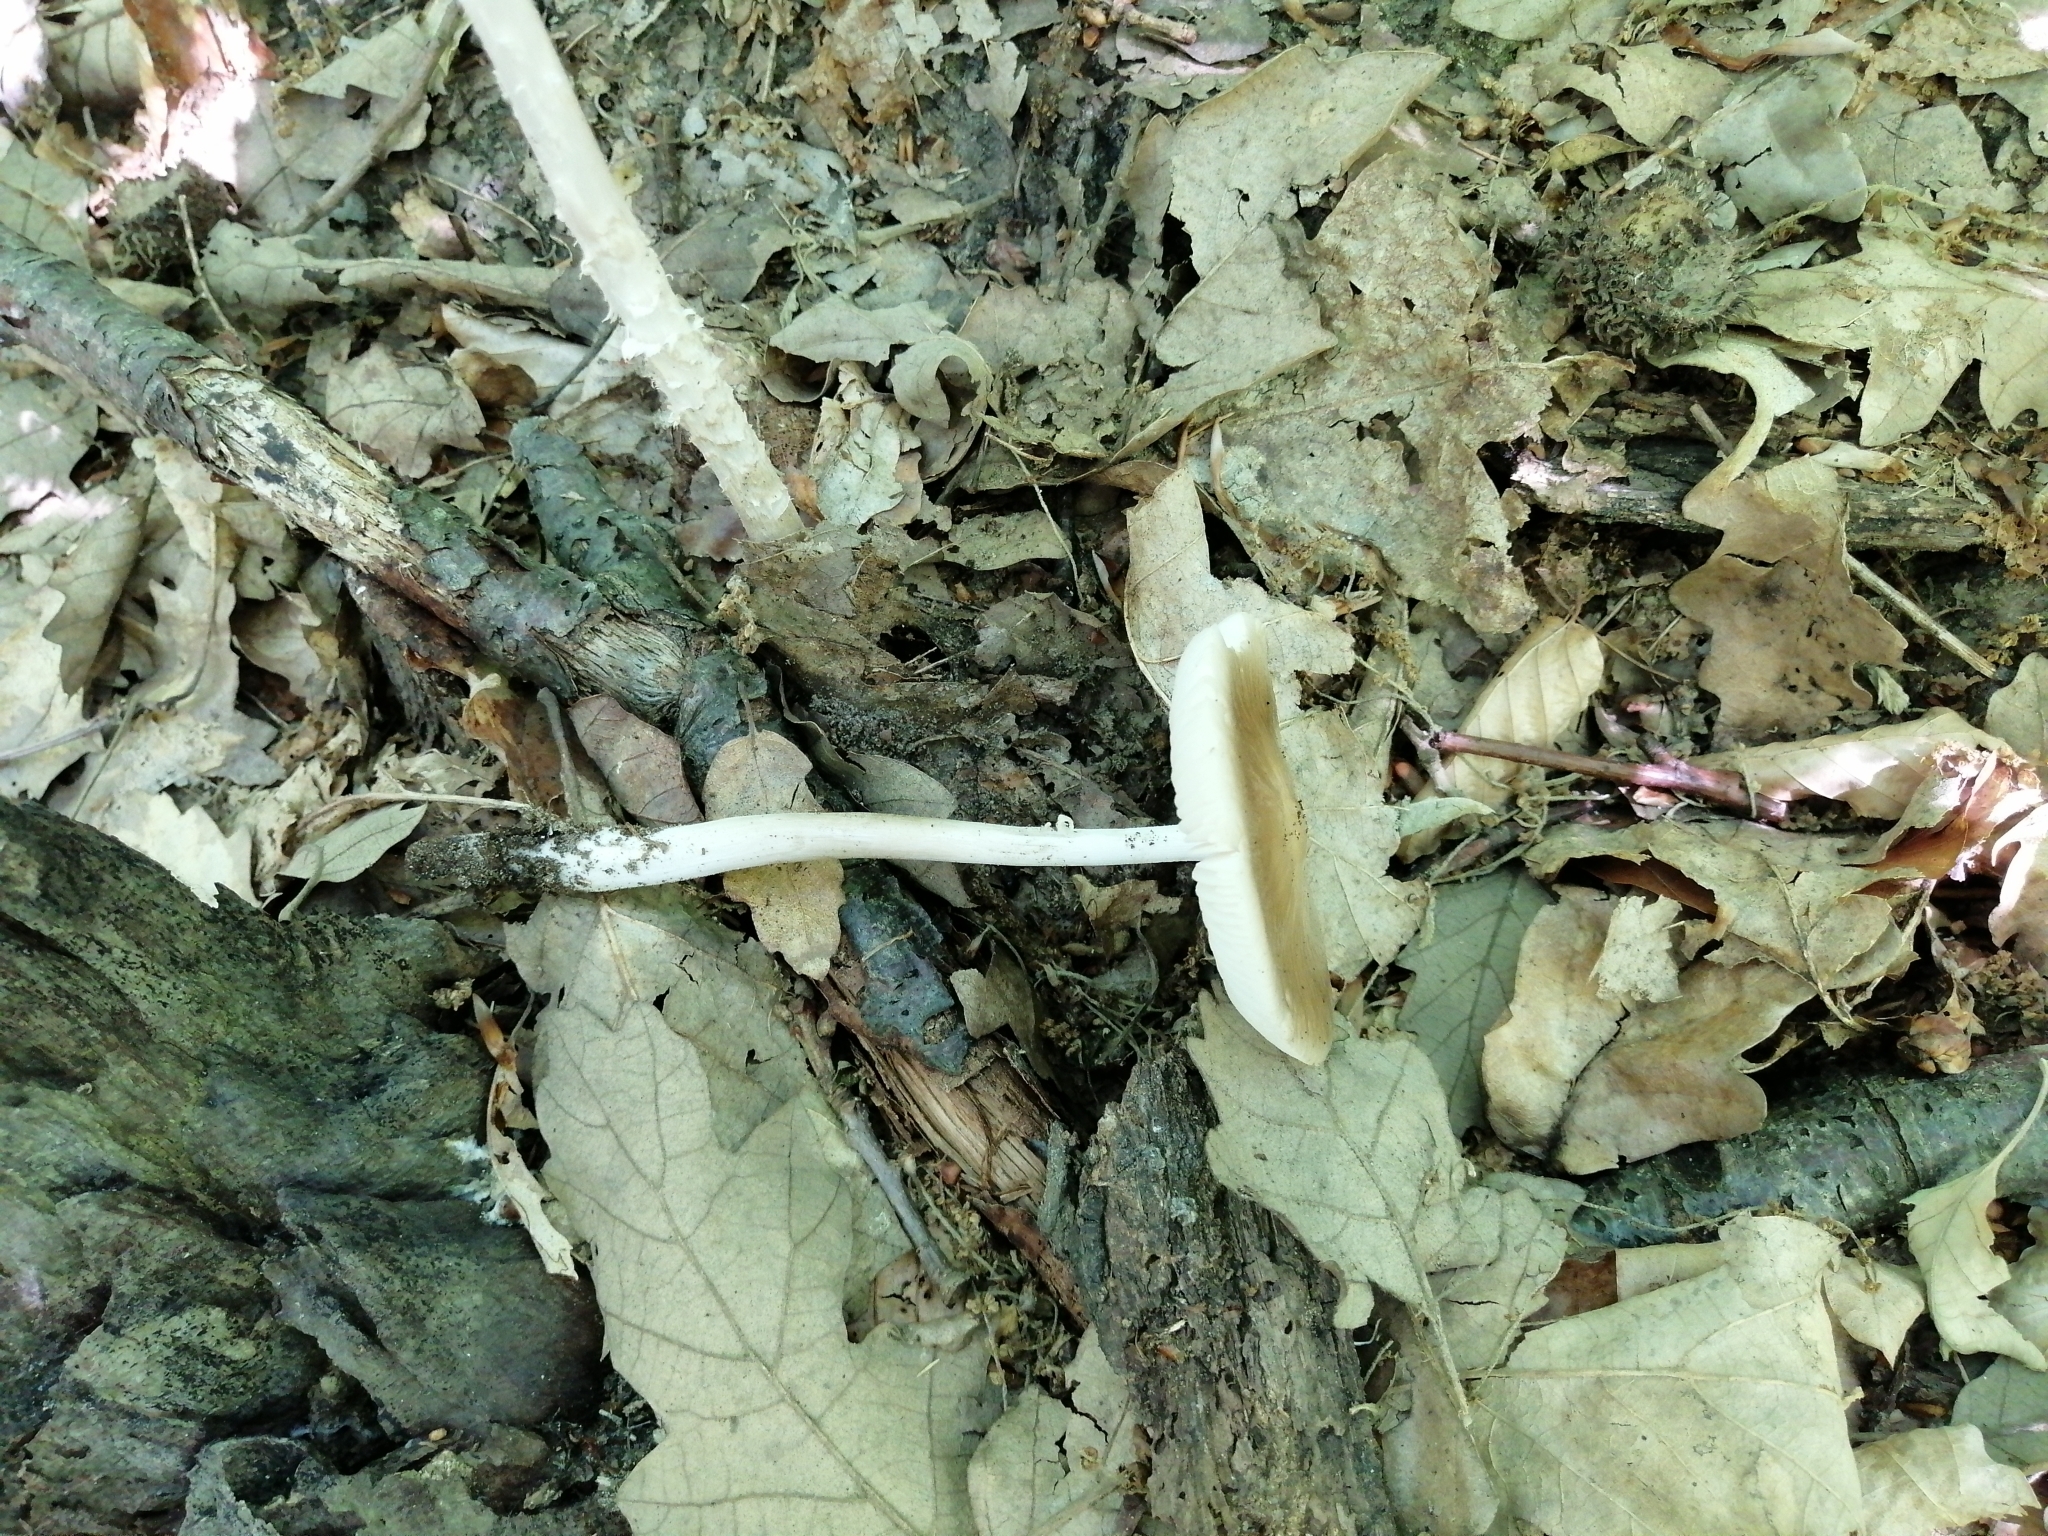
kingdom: Fungi
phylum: Basidiomycota
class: Agaricomycetes
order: Agaricales
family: Physalacriaceae
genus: Hymenopellis
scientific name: Hymenopellis radicata
